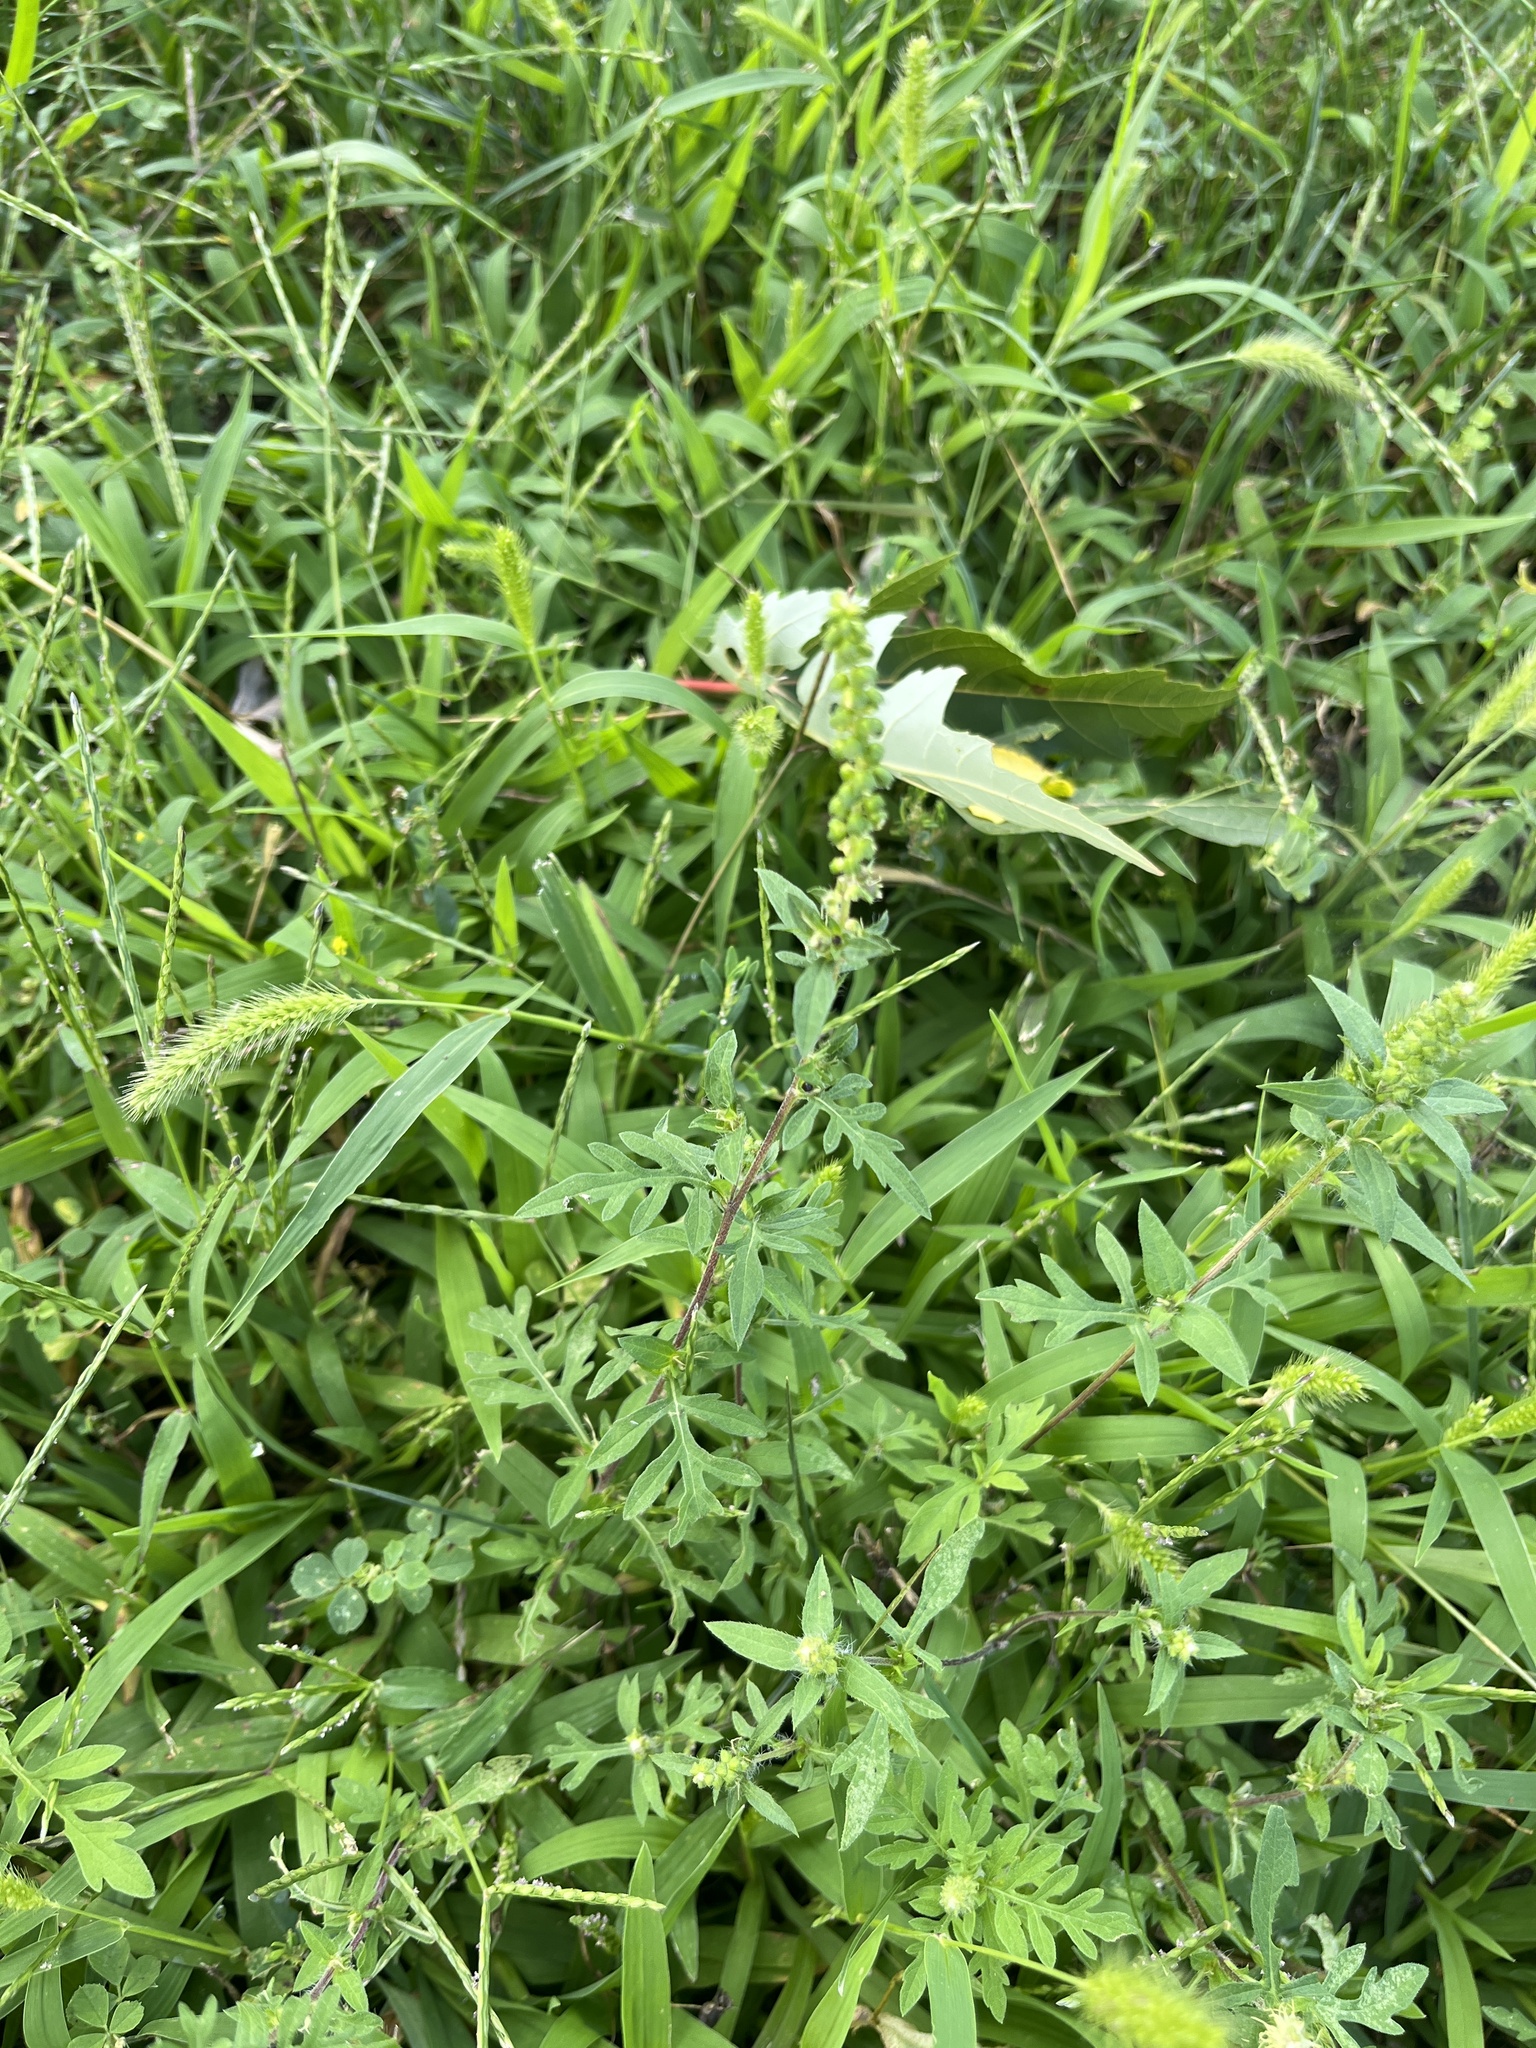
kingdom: Plantae
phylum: Tracheophyta
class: Magnoliopsida
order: Asterales
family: Asteraceae
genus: Ambrosia
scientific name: Ambrosia artemisiifolia
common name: Annual ragweed
